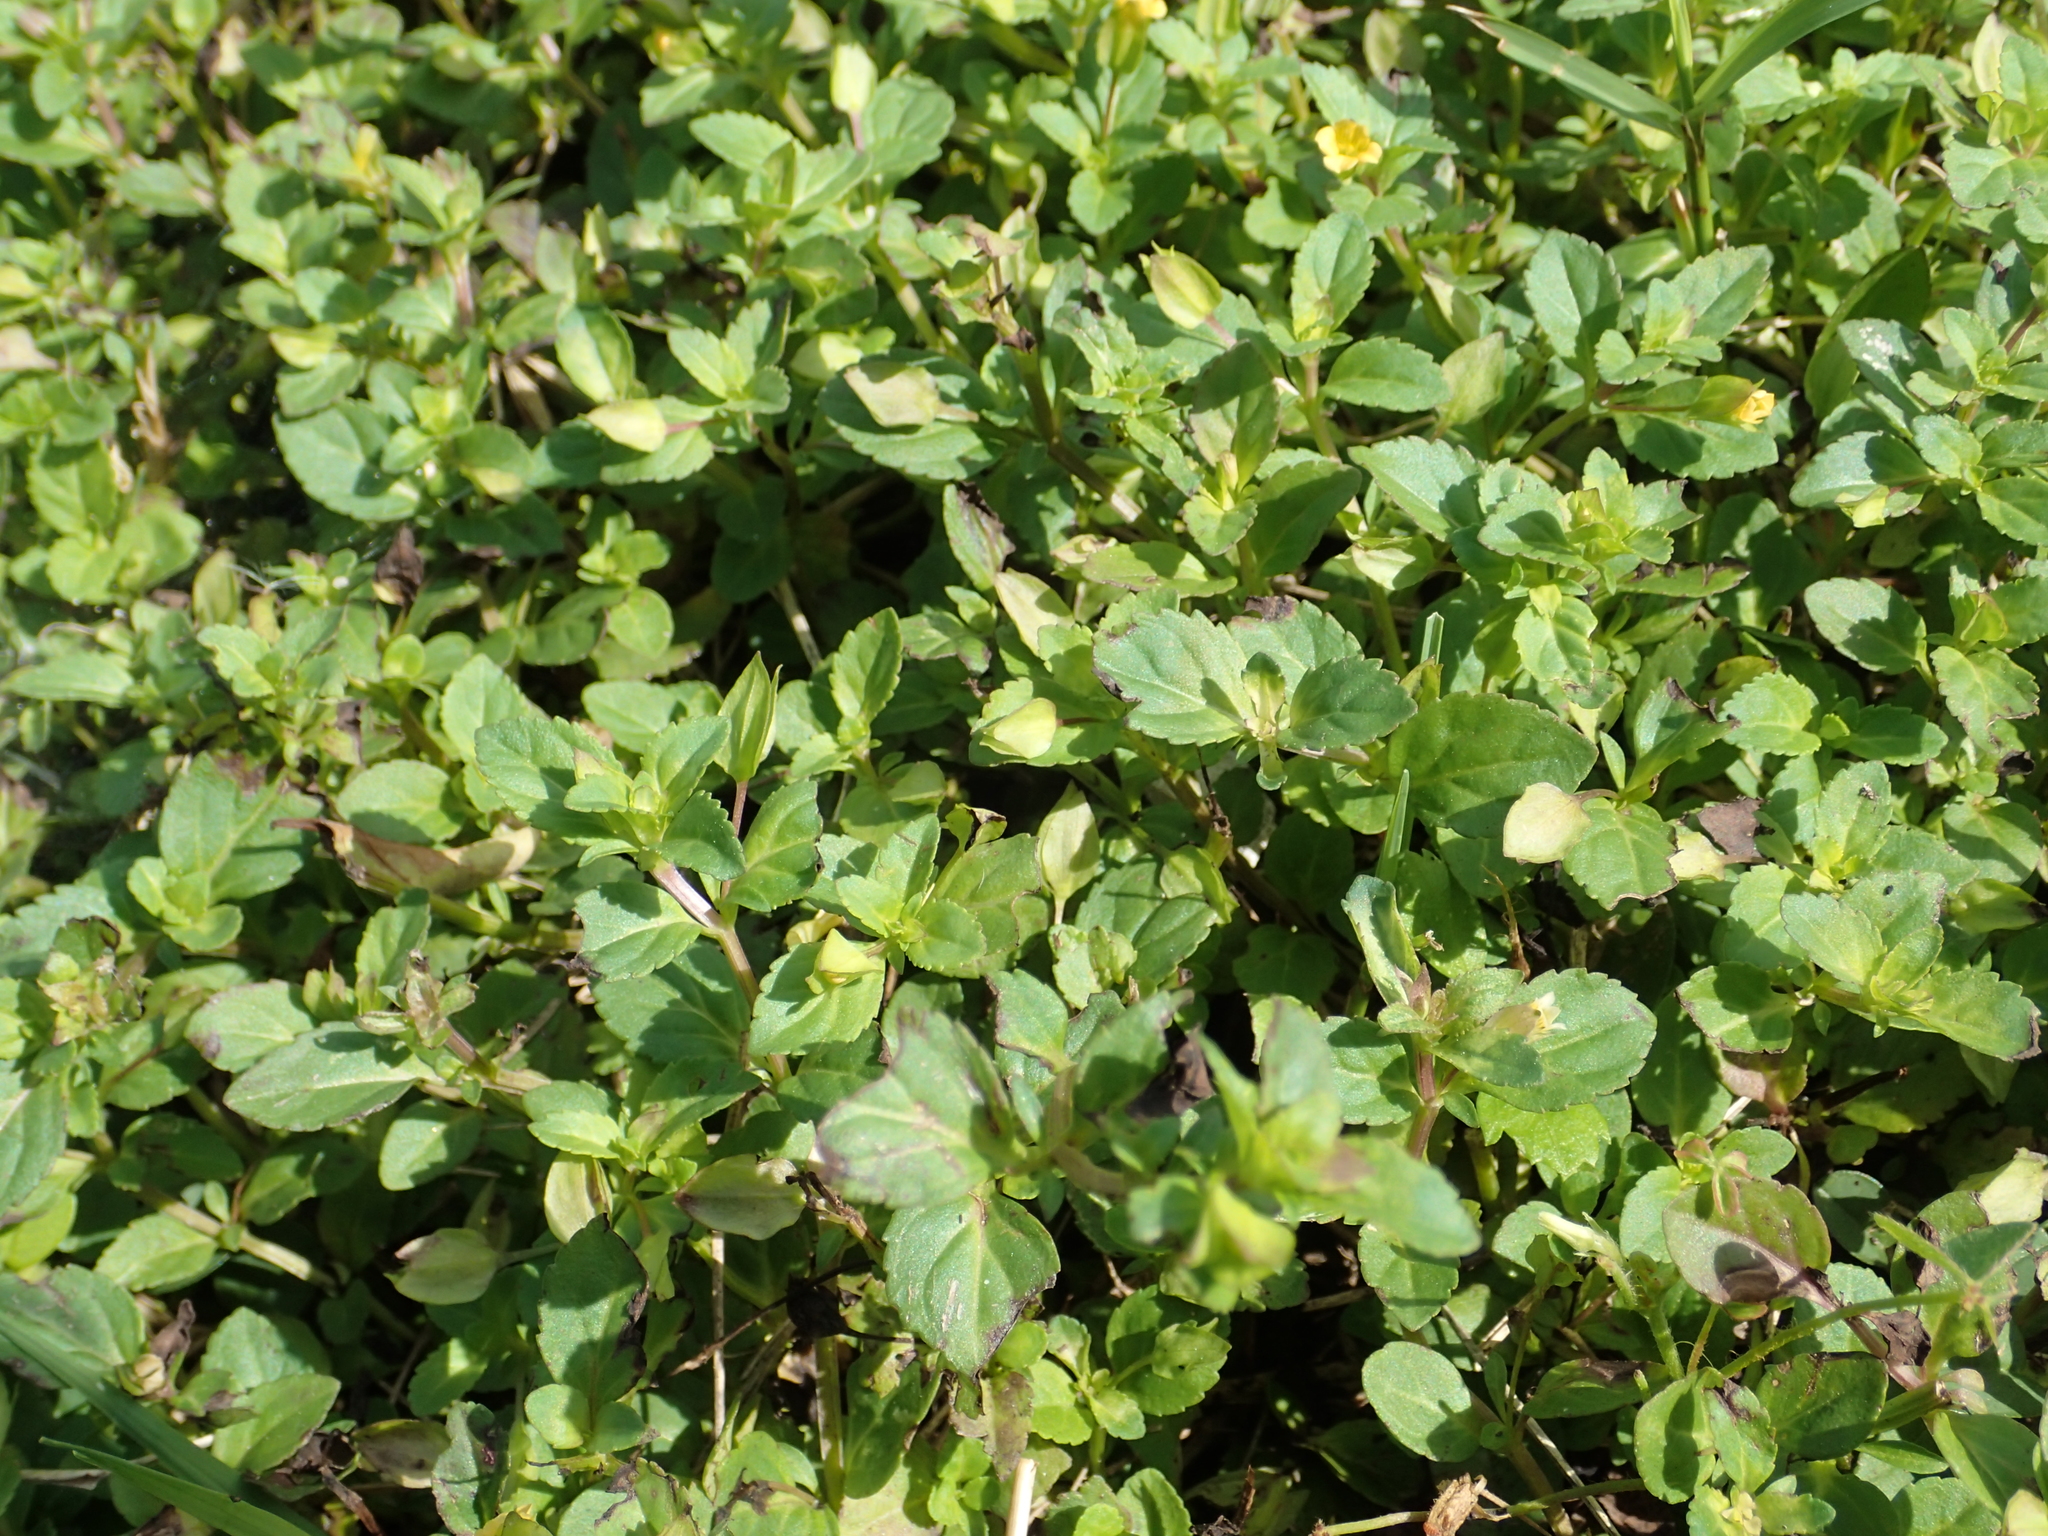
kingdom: Plantae
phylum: Tracheophyta
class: Magnoliopsida
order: Lamiales
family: Plantaginaceae
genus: Mecardonia
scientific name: Mecardonia procumbens
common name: Baby jump-up
